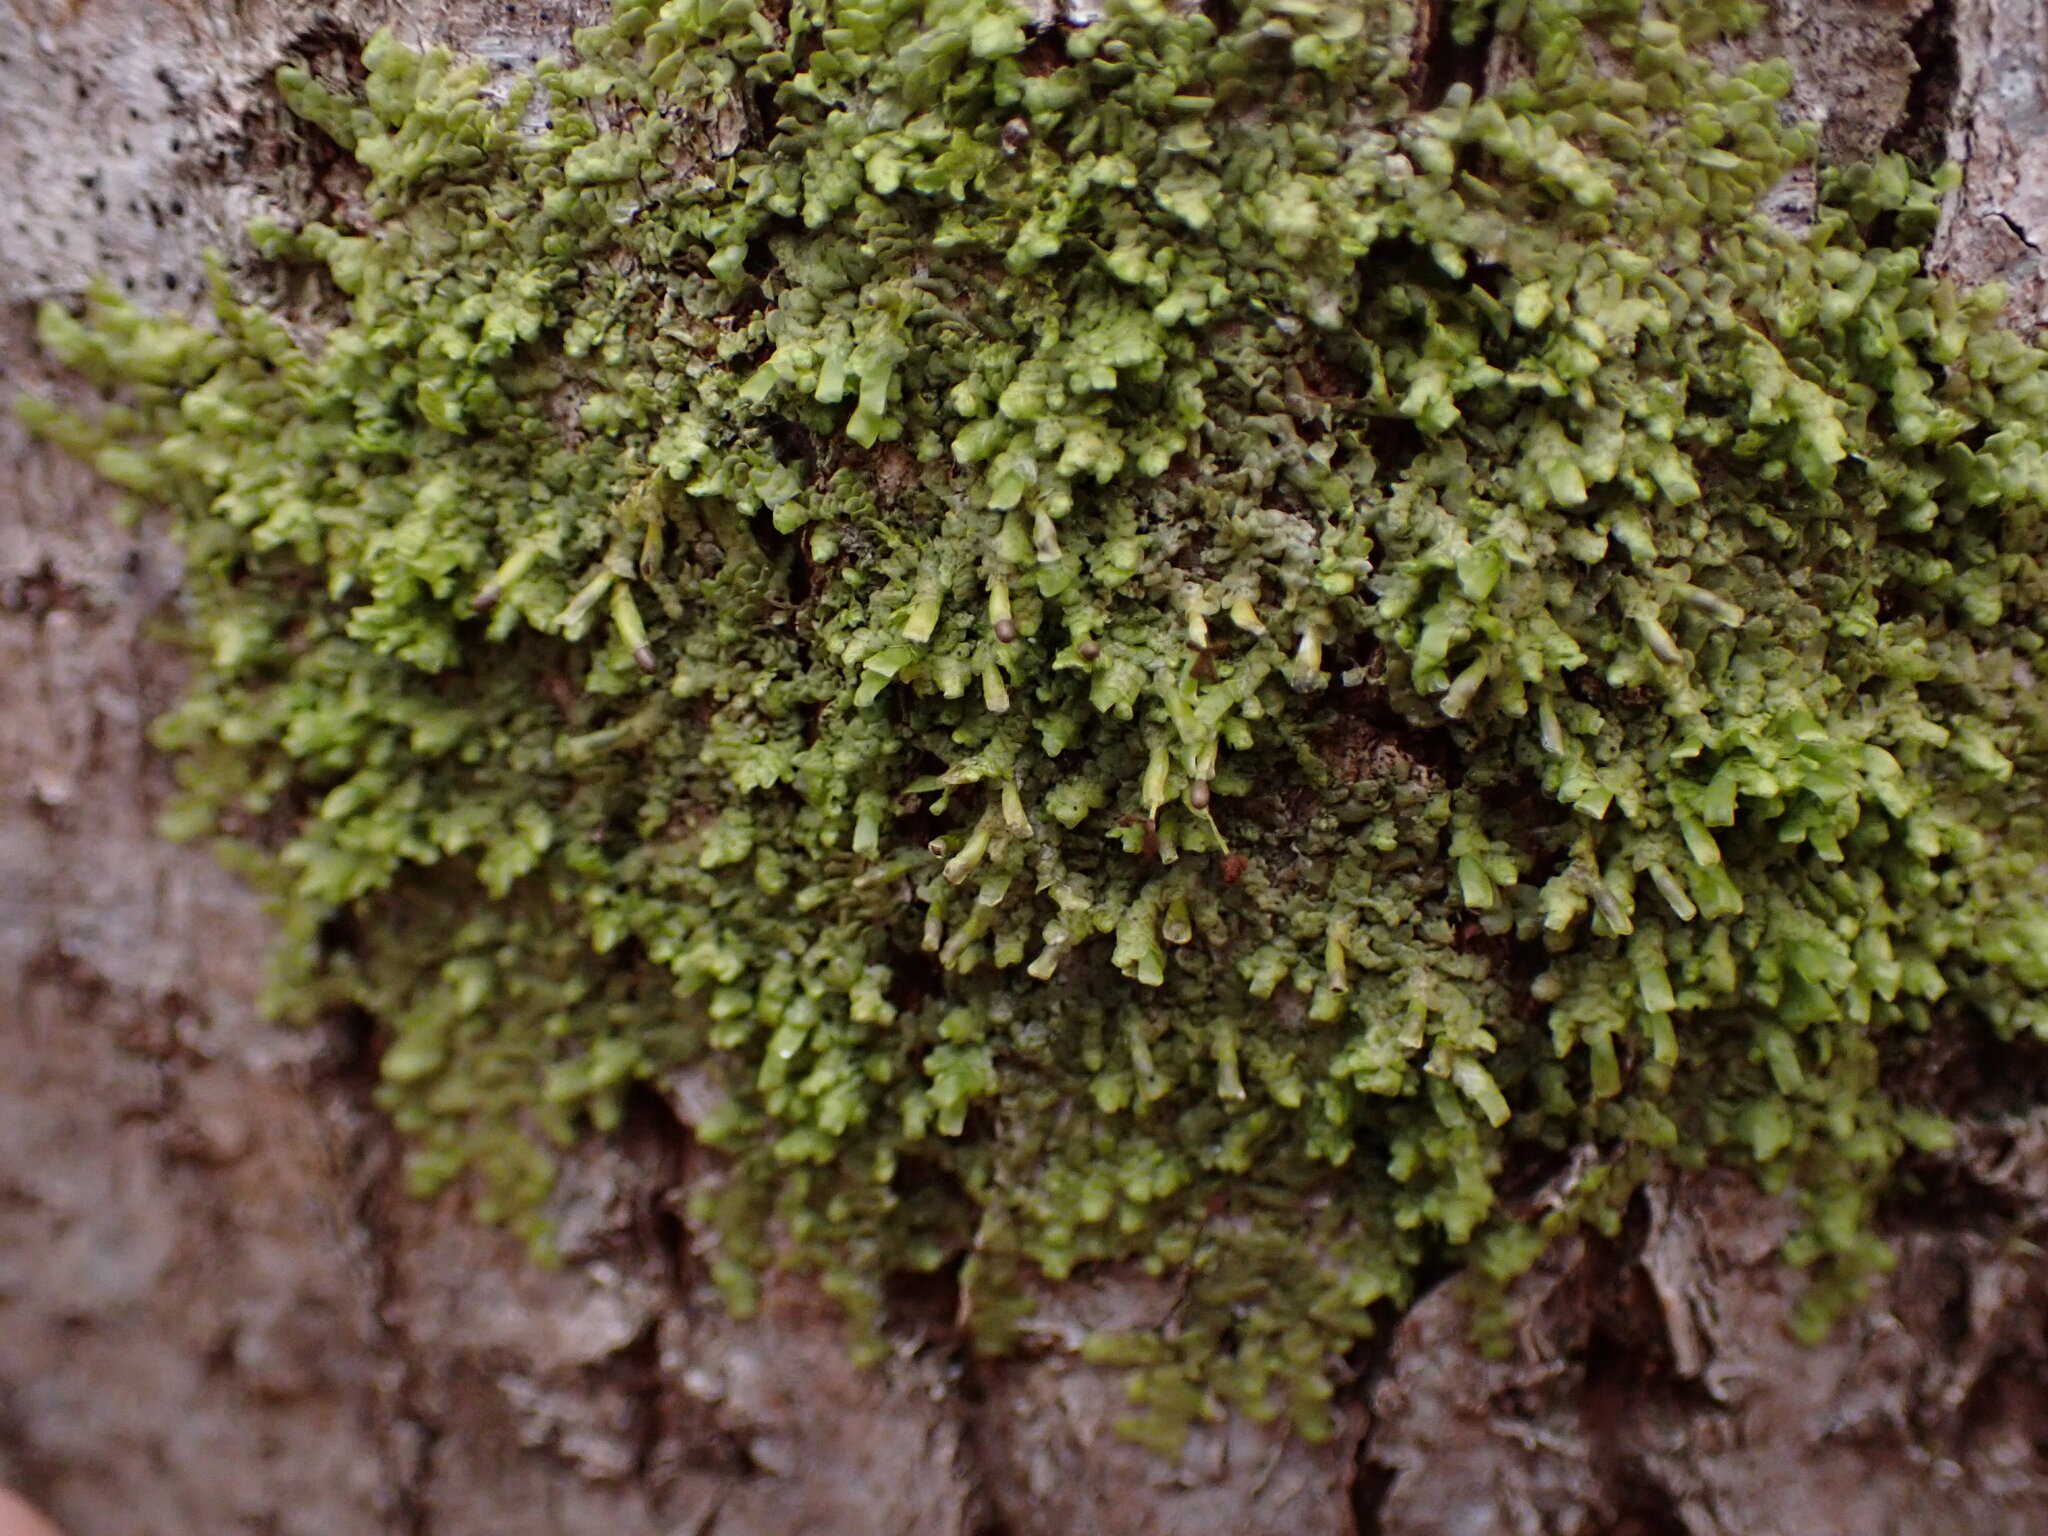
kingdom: Plantae
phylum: Marchantiophyta
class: Jungermanniopsida
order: Porellales
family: Radulaceae
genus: Radula
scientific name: Radula complanata
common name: Flat-leaved scalewort
